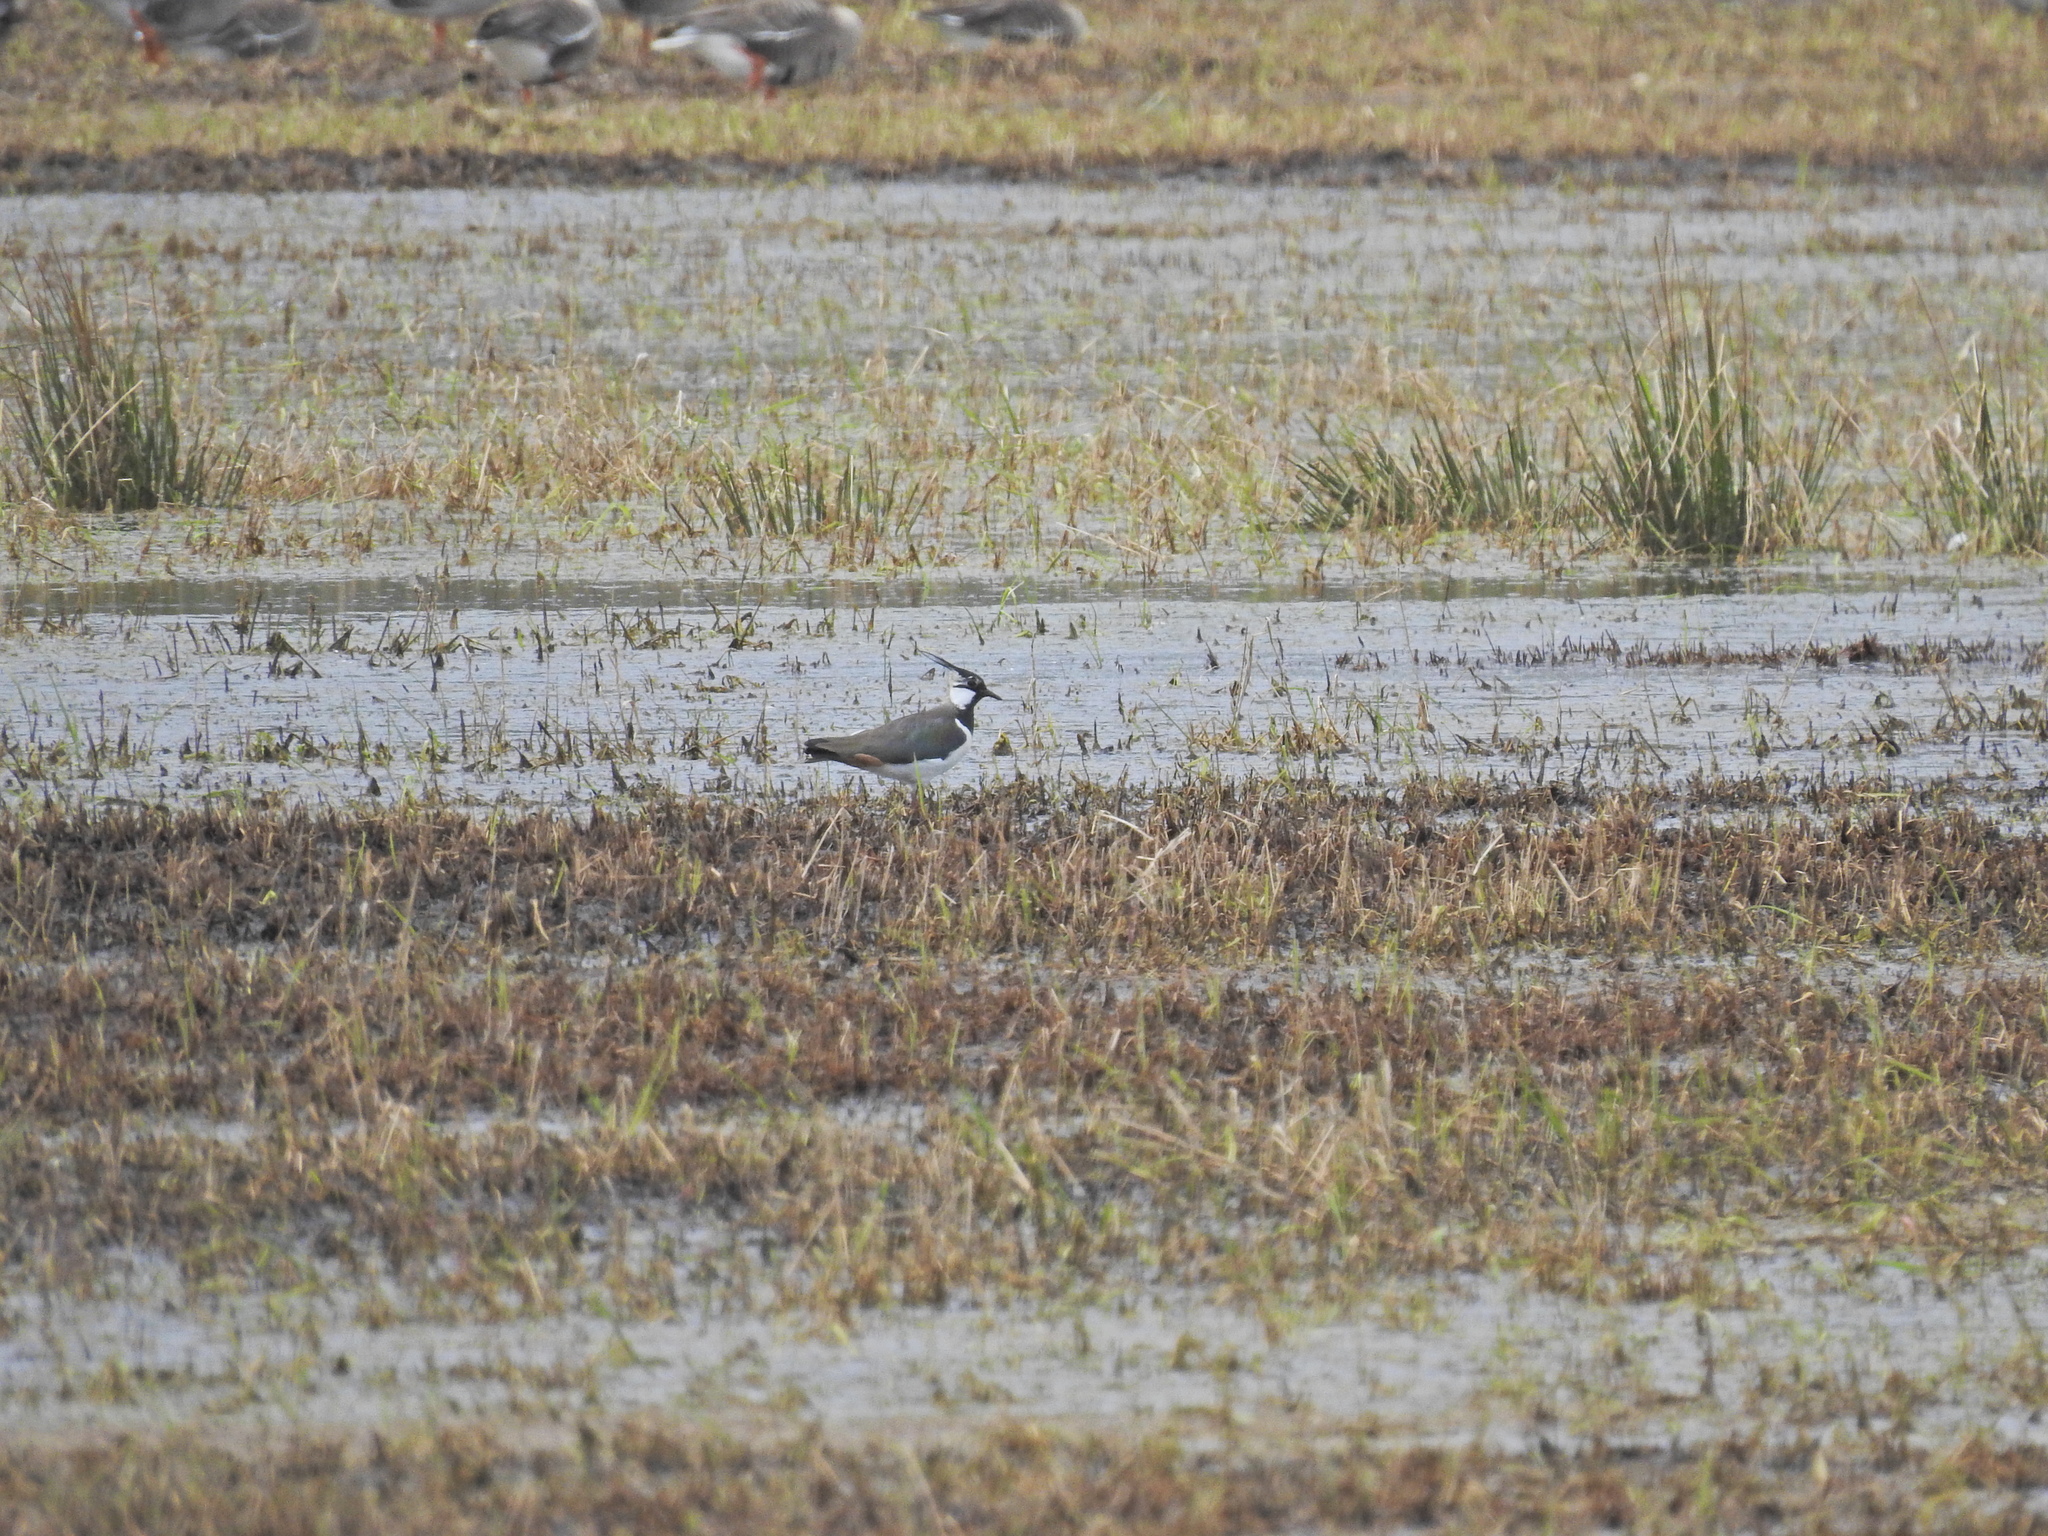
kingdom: Animalia
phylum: Chordata
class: Aves
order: Charadriiformes
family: Charadriidae
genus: Vanellus
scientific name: Vanellus vanellus
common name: Northern lapwing
